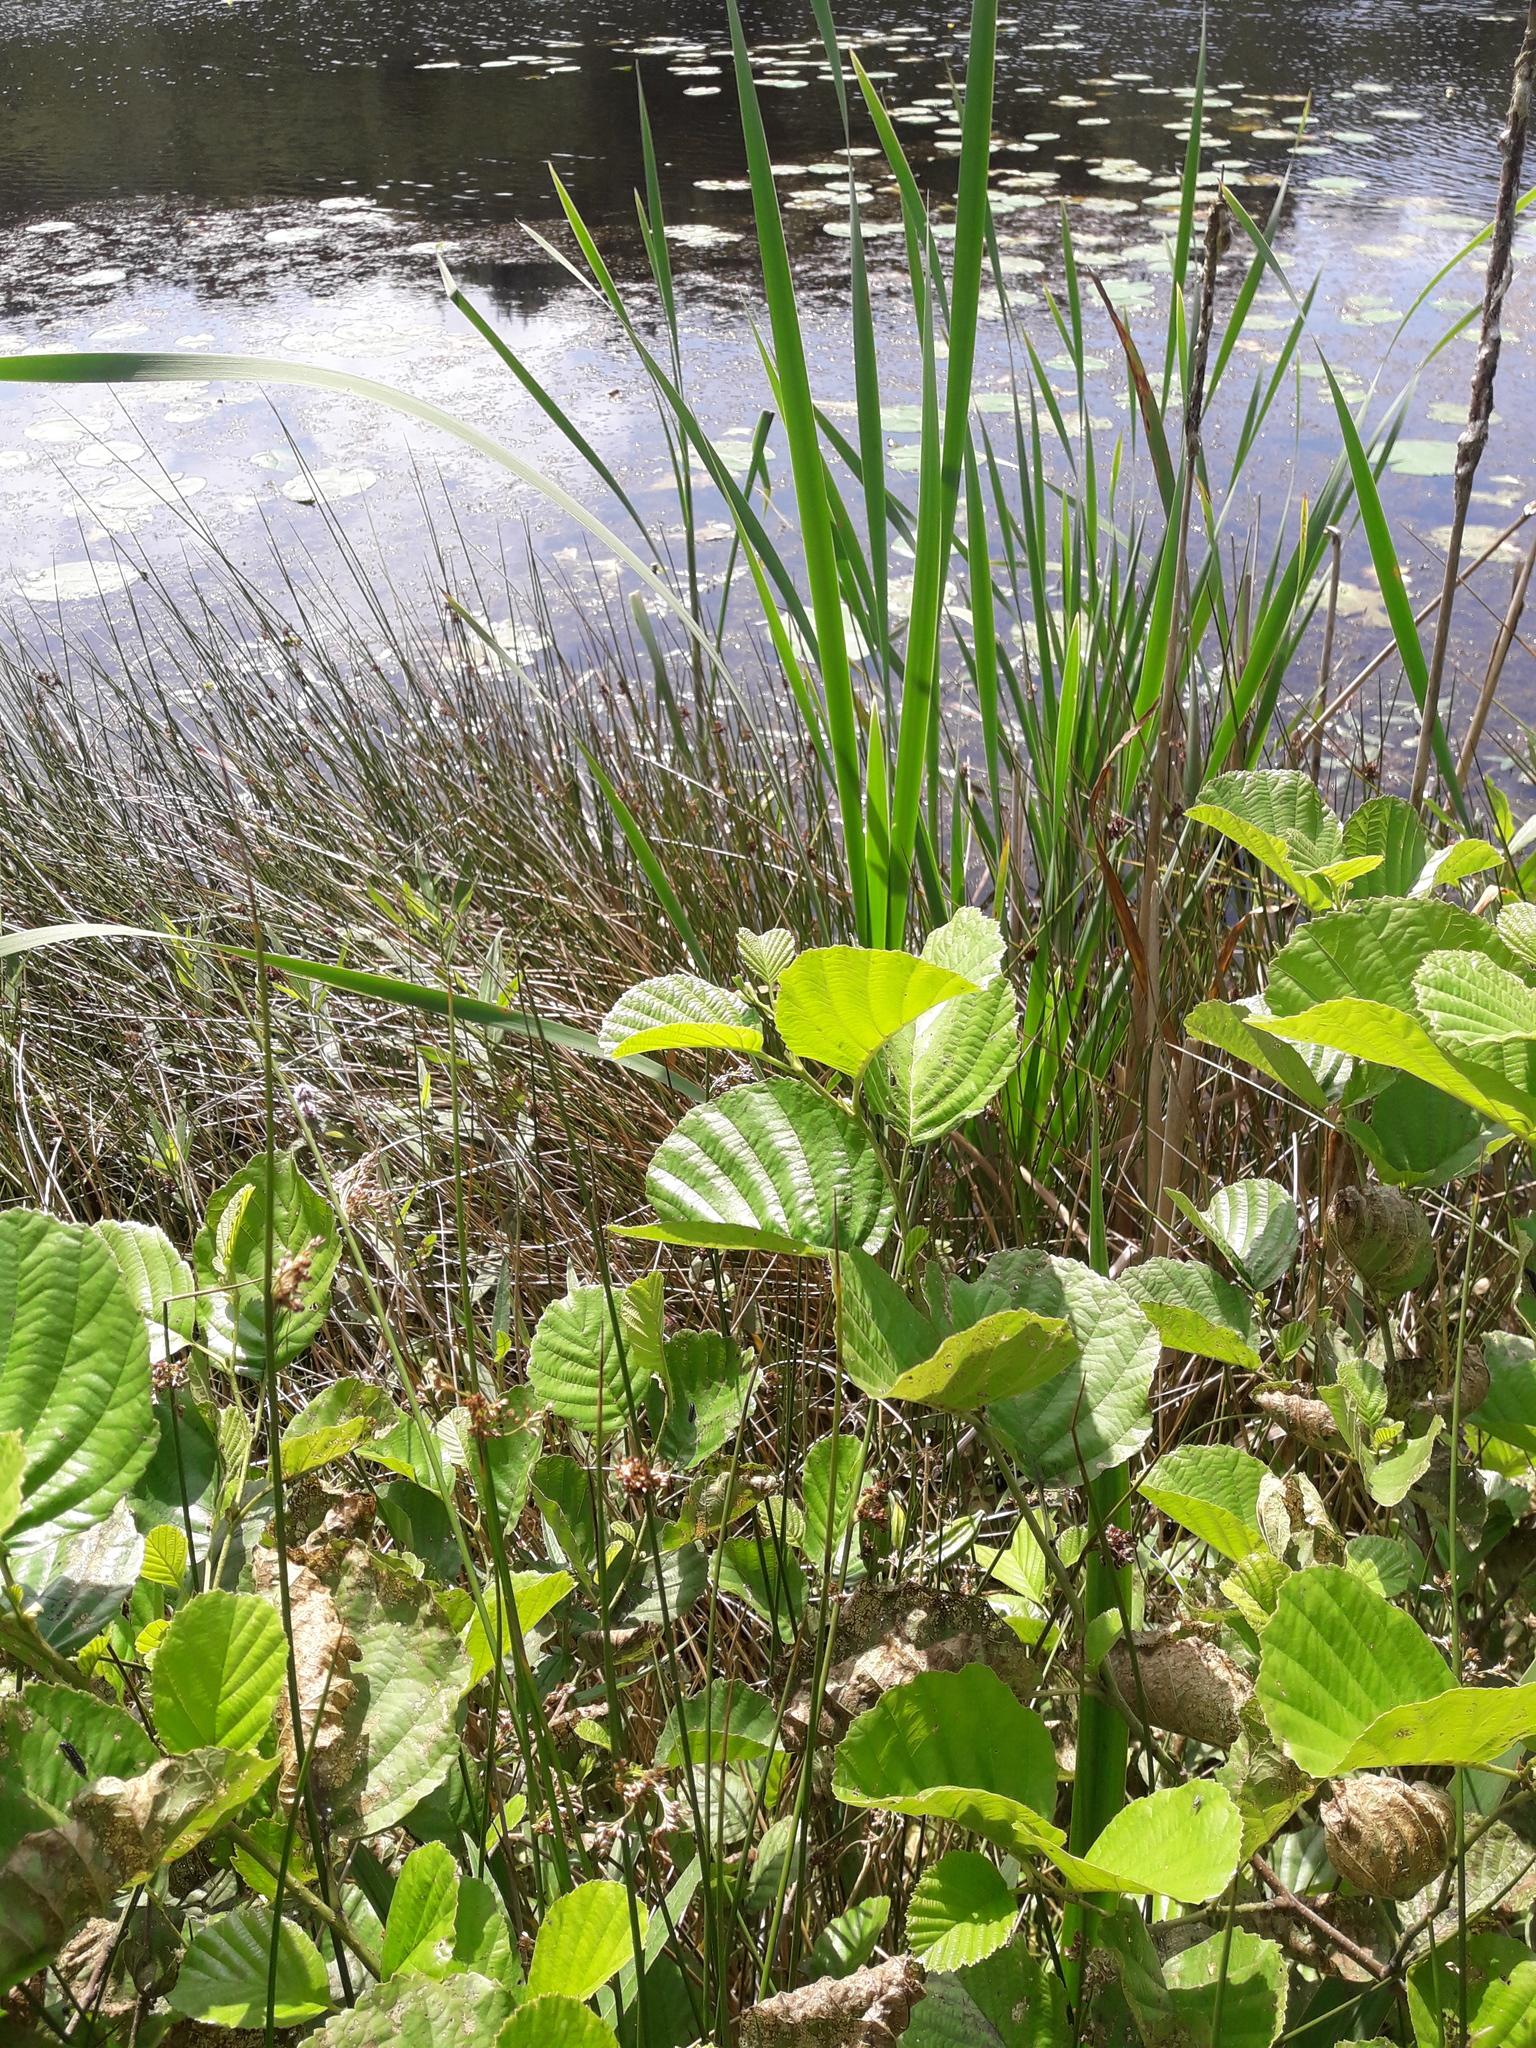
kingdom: Plantae
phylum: Tracheophyta
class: Magnoliopsida
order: Fagales
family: Betulaceae
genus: Alnus
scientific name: Alnus glutinosa
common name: Black alder
